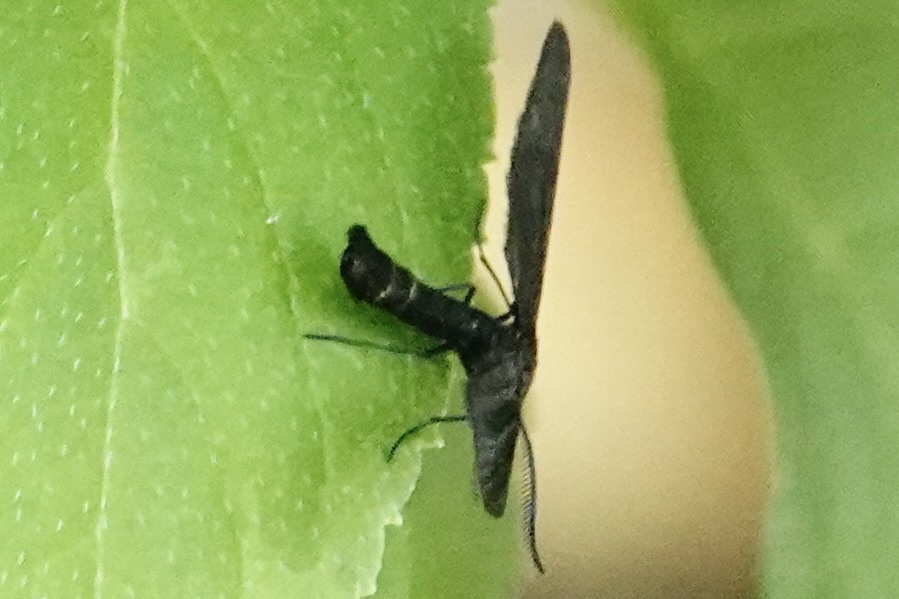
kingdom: Animalia
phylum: Arthropoda
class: Insecta
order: Lepidoptera
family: Zygaenidae
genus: Harrisina
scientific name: Harrisina americana
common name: Grapeleaf skeletonizer moth
